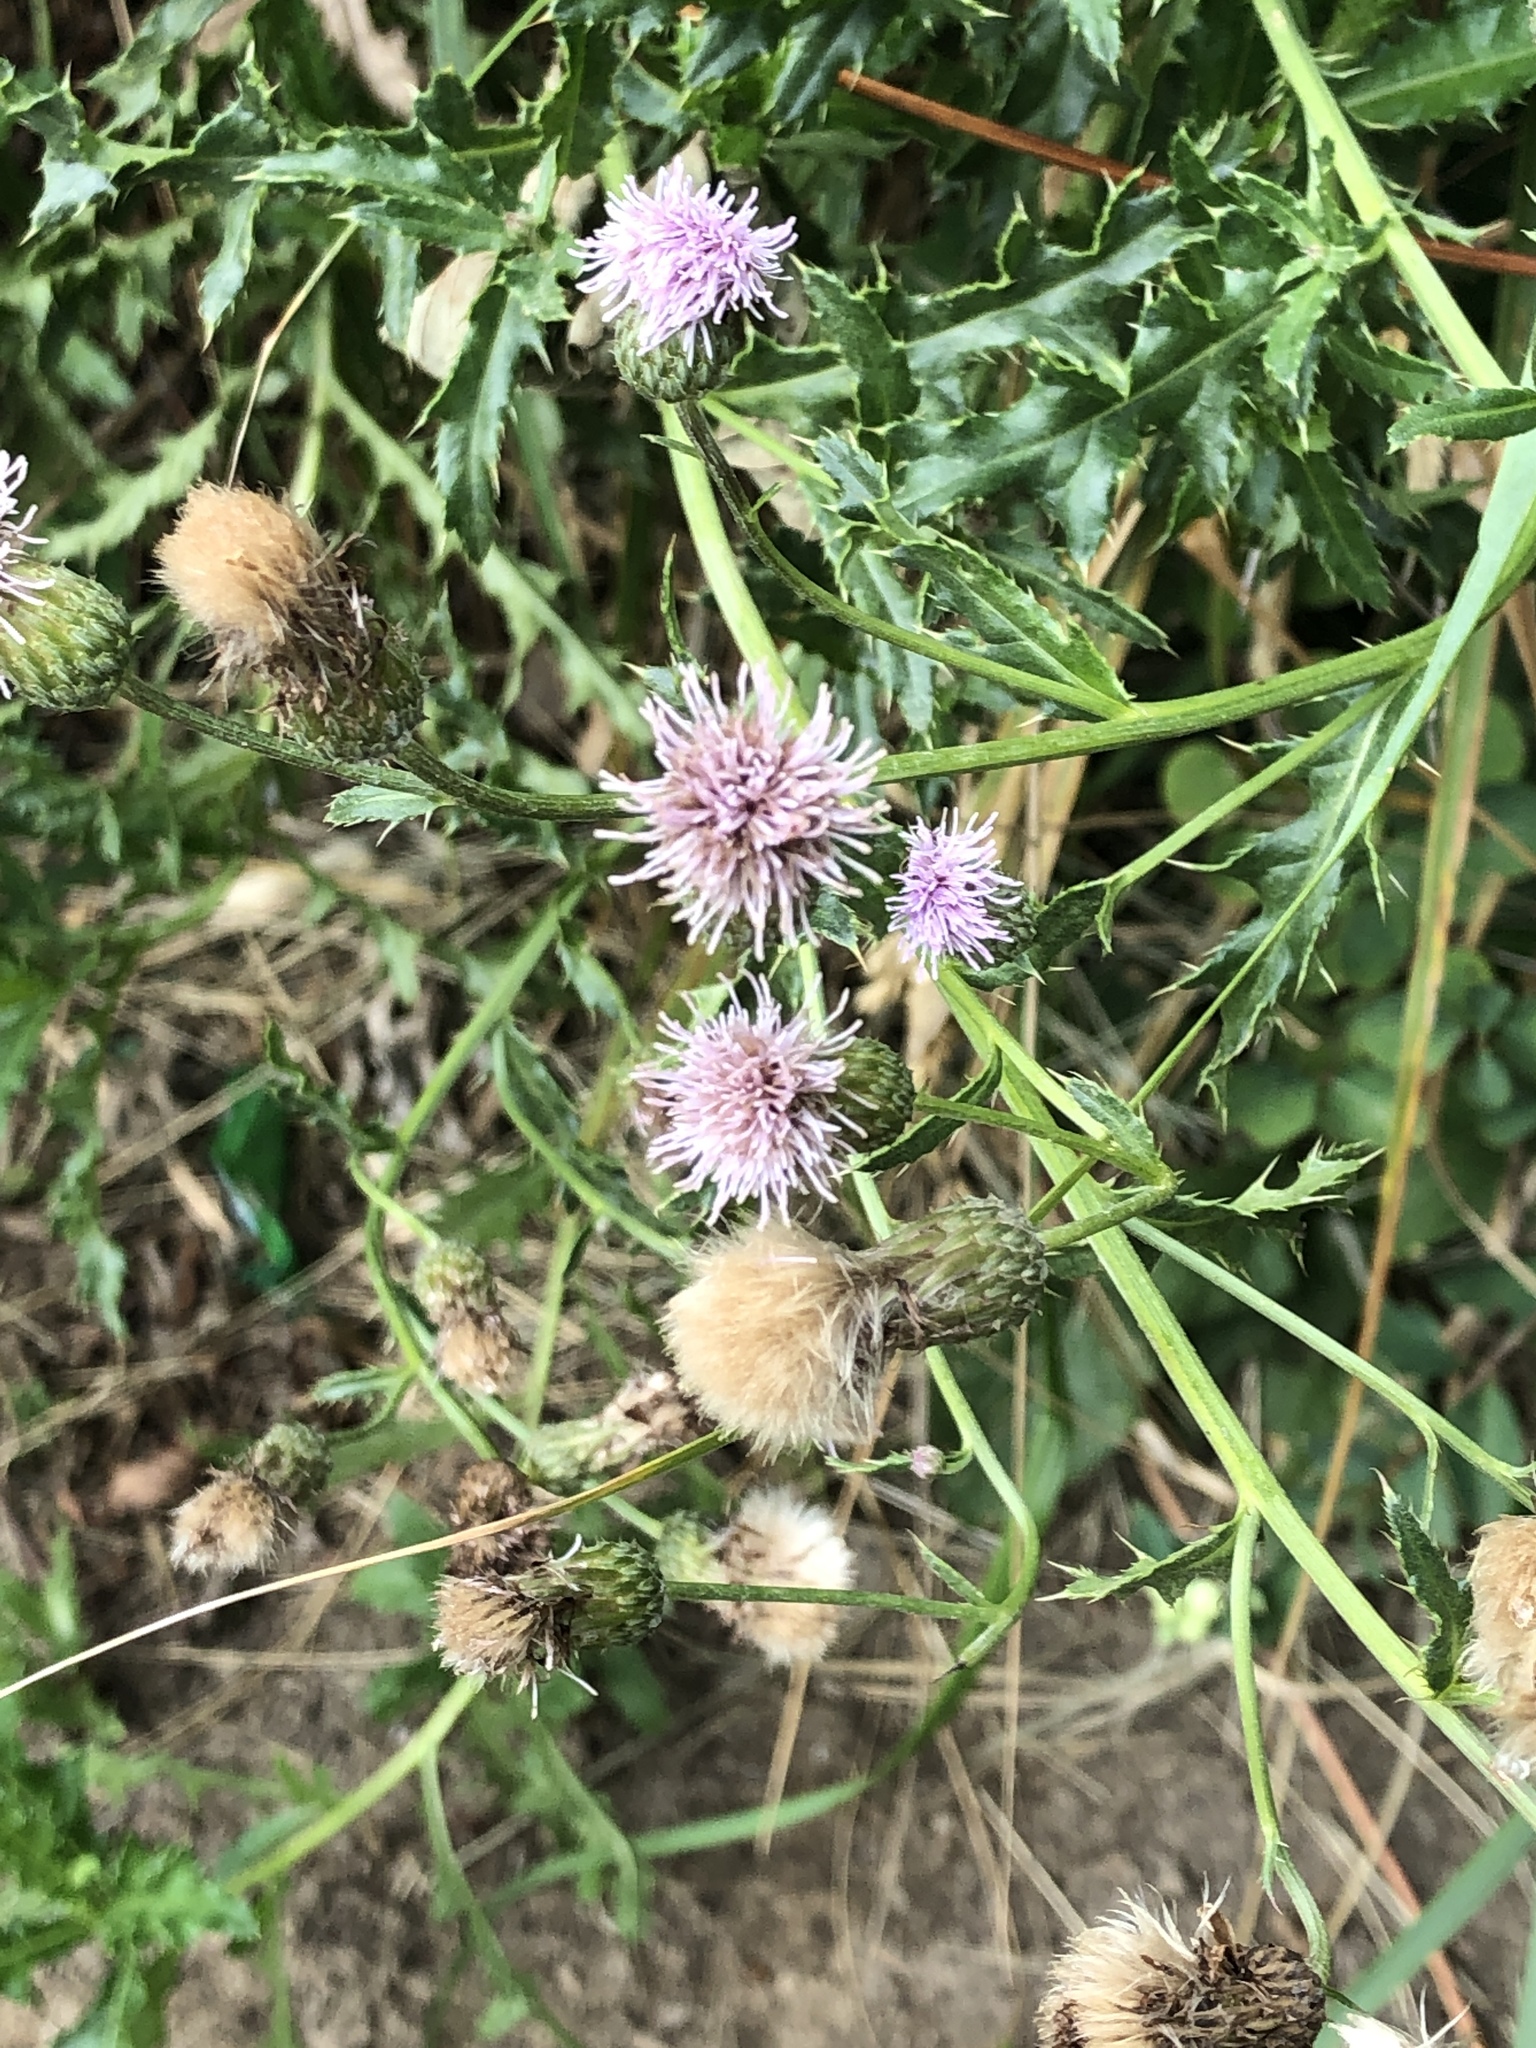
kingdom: Plantae
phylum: Tracheophyta
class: Magnoliopsida
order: Asterales
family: Asteraceae
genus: Cirsium
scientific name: Cirsium arvense
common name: Creeping thistle
